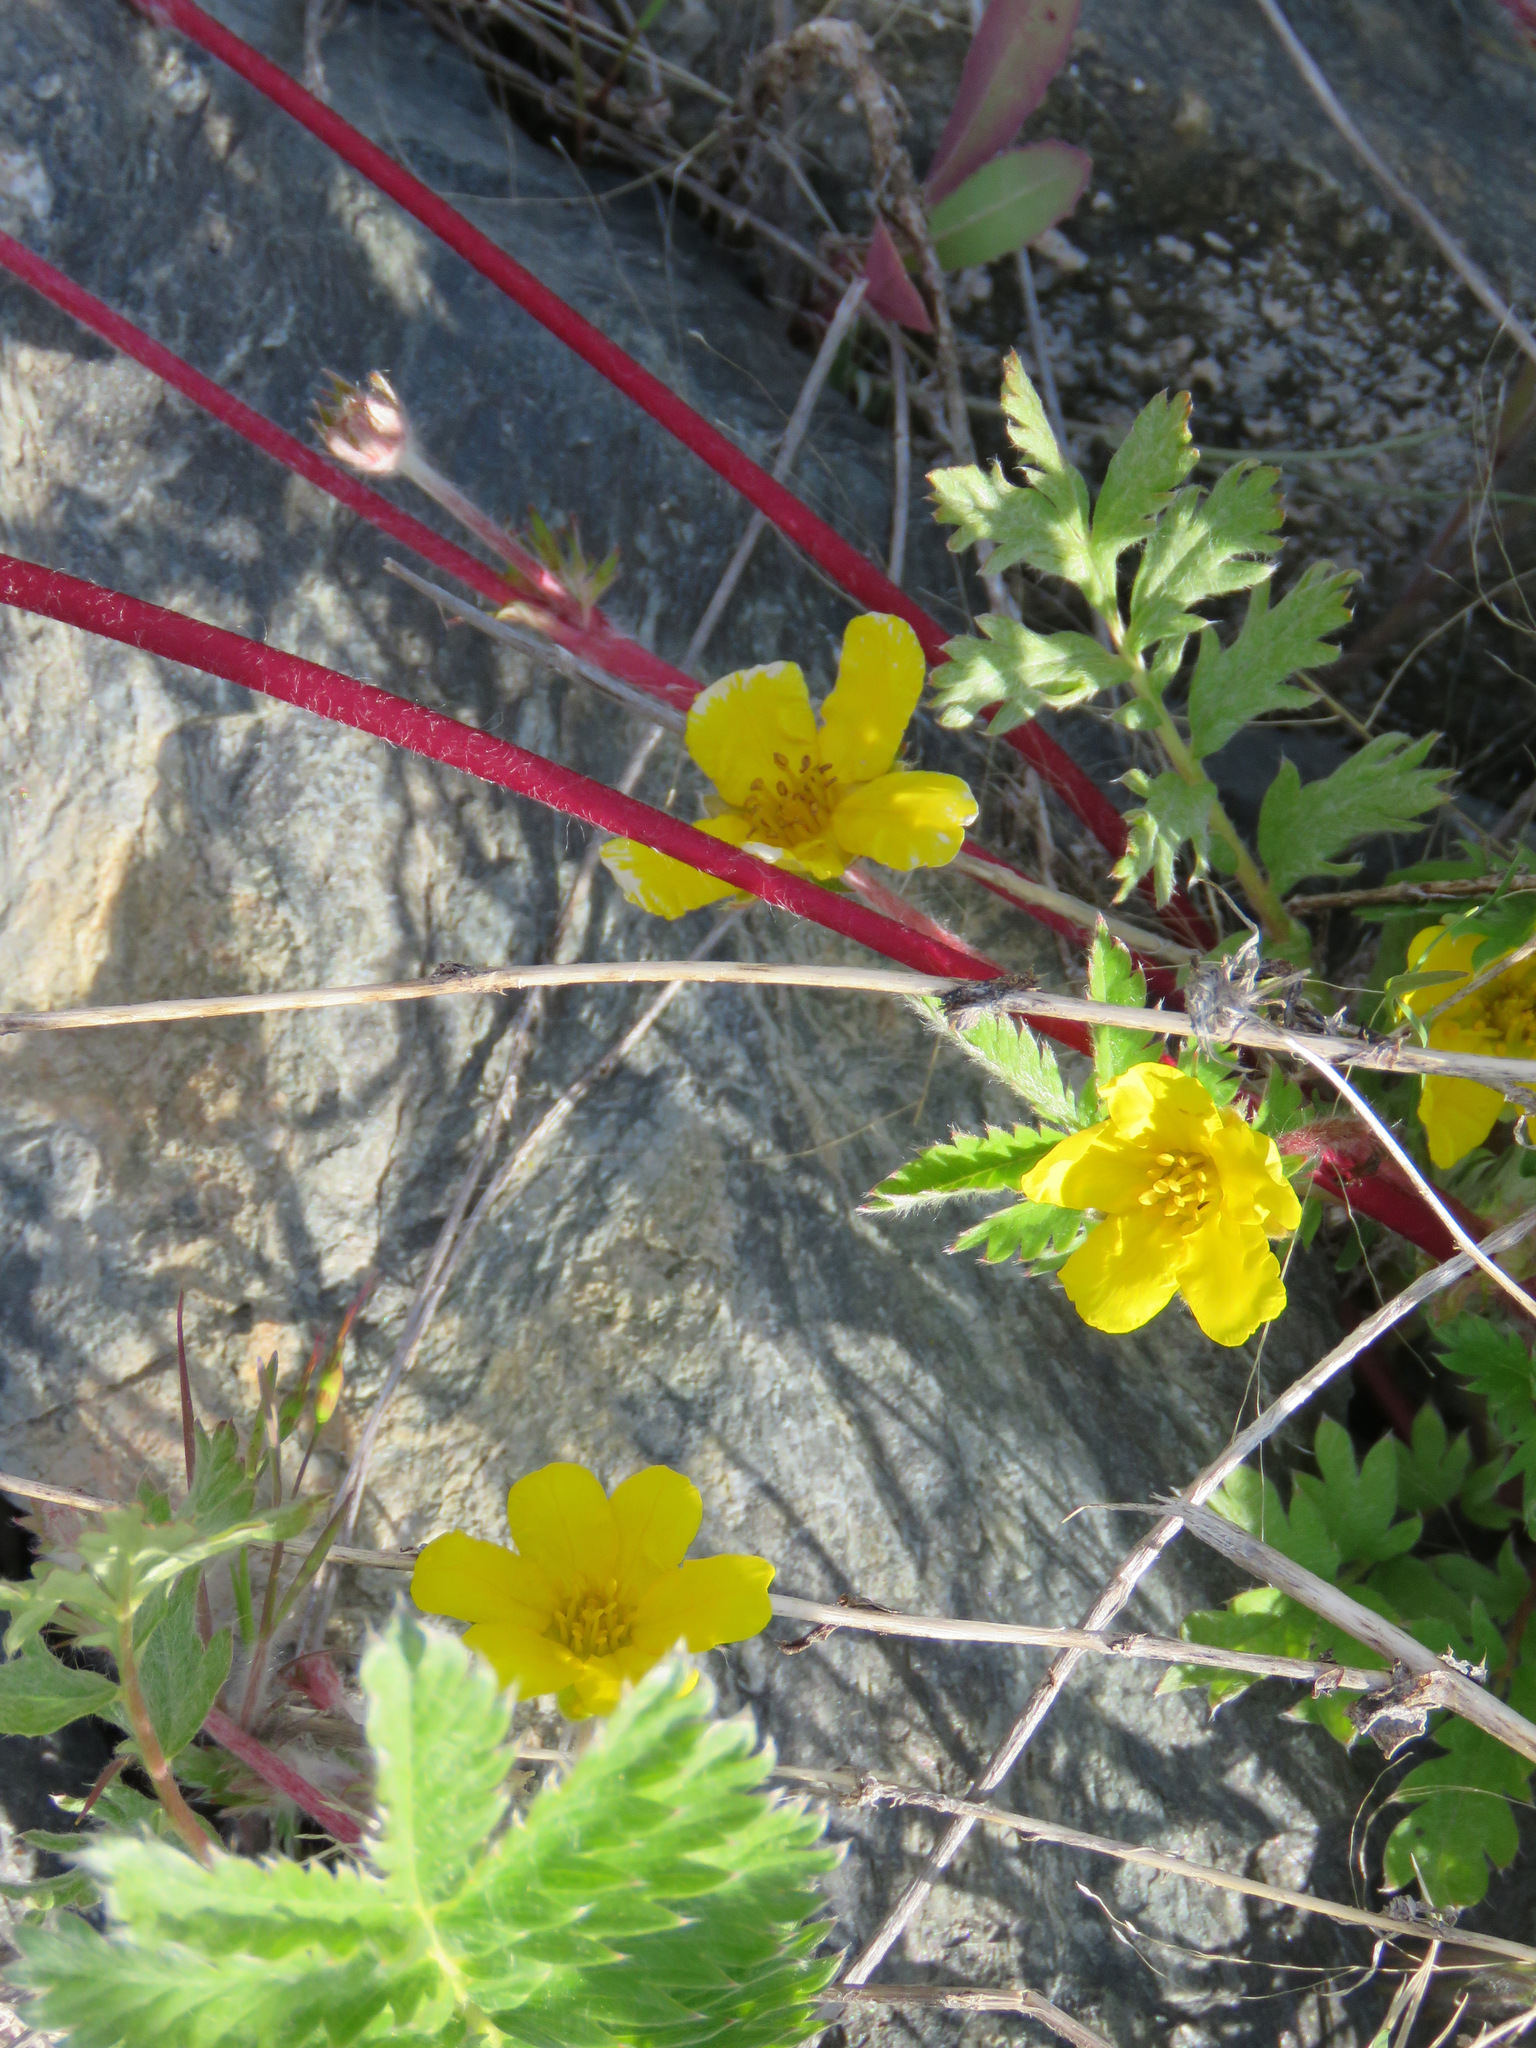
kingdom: Plantae
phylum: Tracheophyta
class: Magnoliopsida
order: Rosales
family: Rosaceae
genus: Argentina
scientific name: Argentina anserina
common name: Common silverweed
